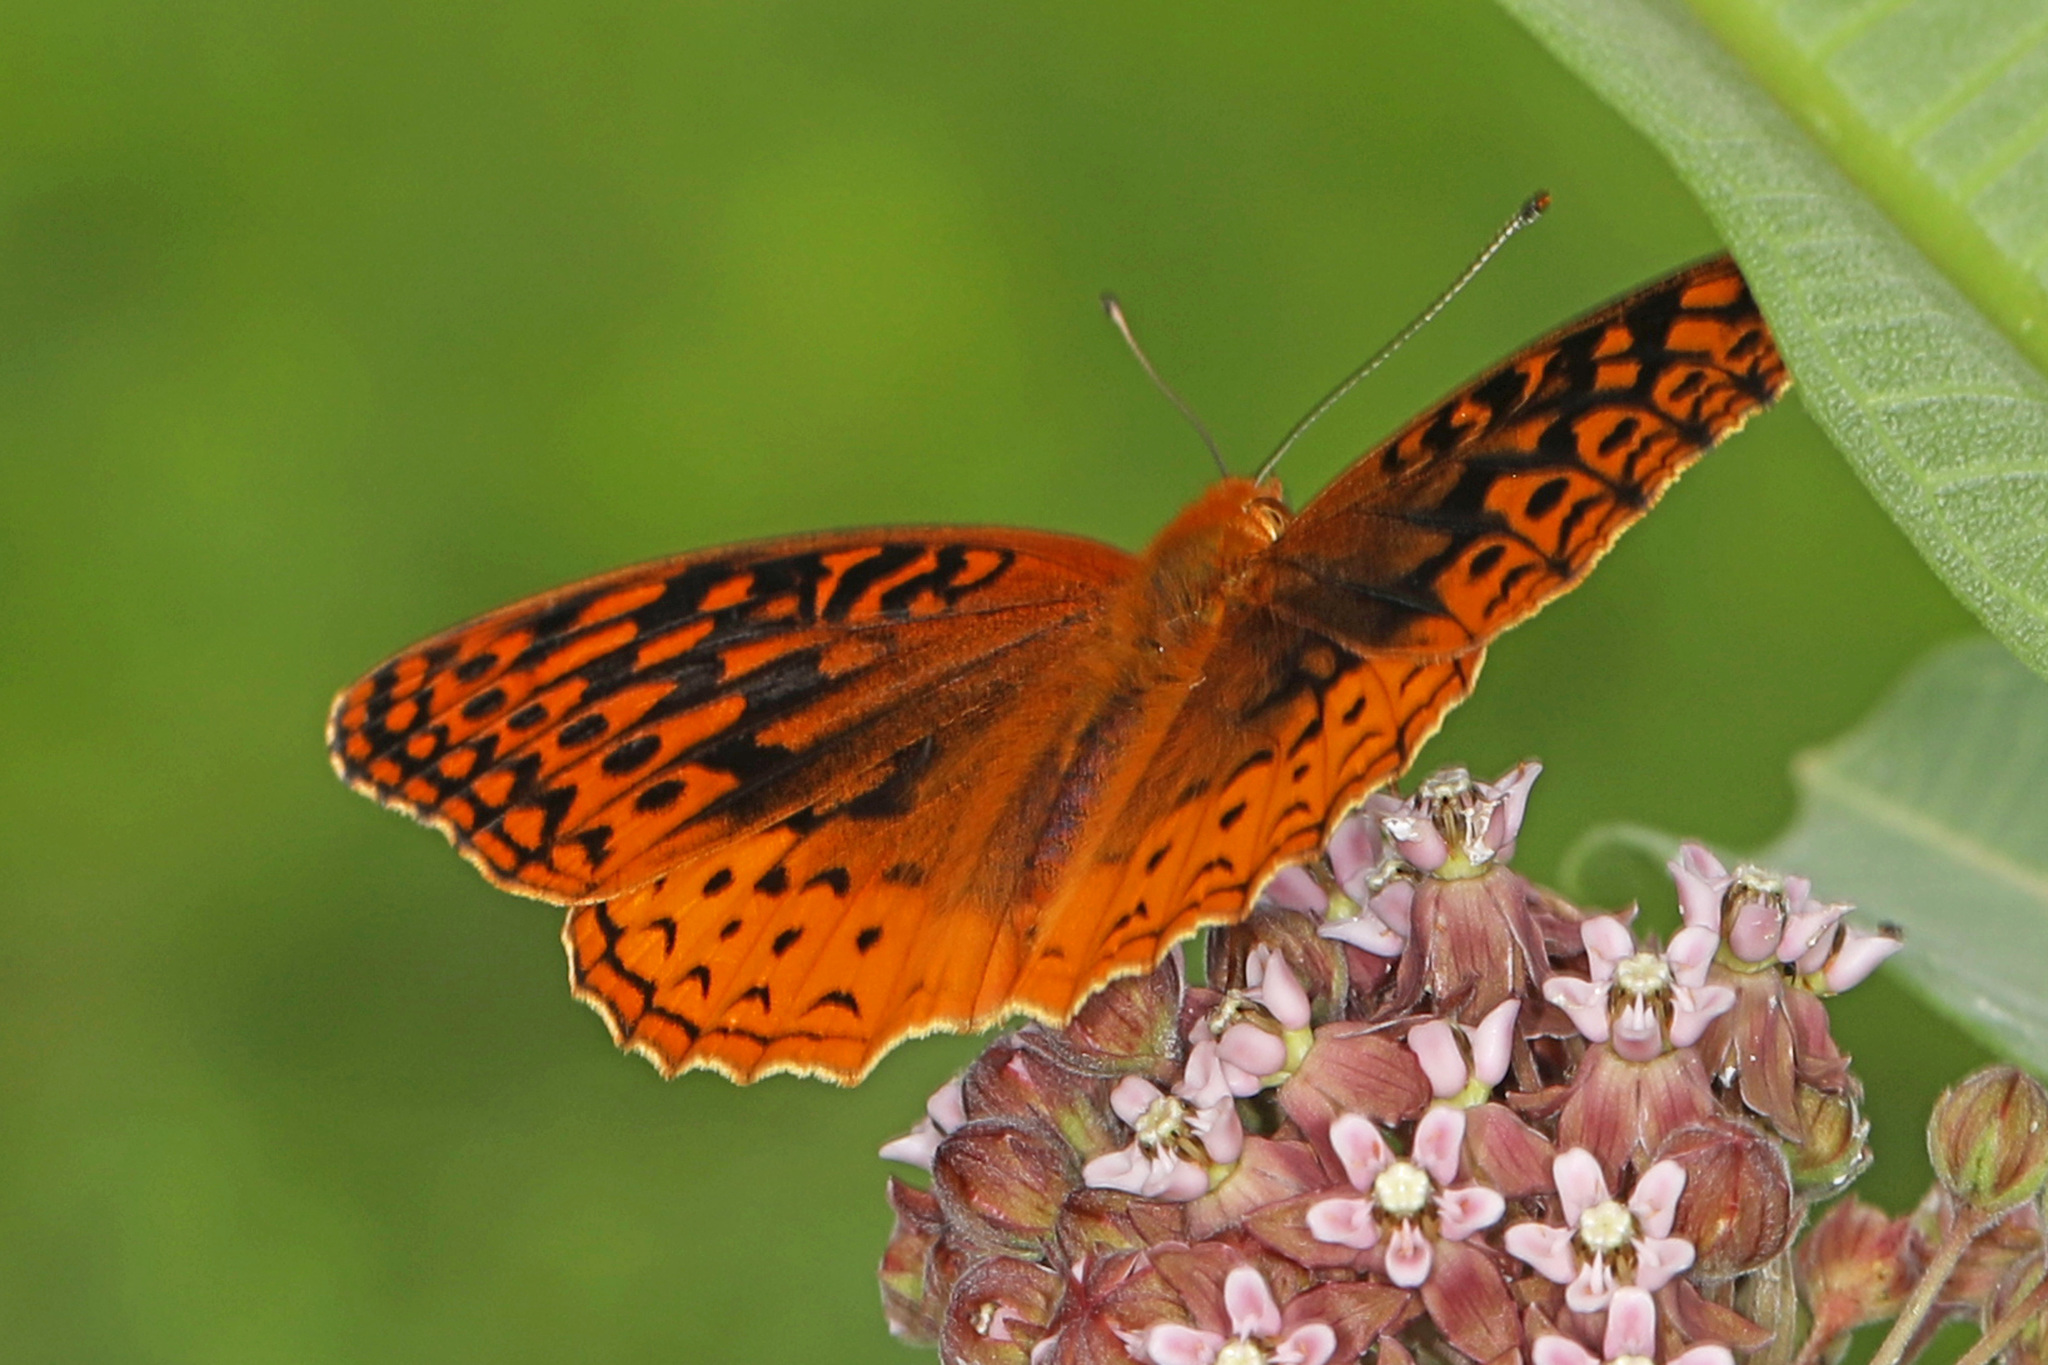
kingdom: Animalia
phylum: Arthropoda
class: Insecta
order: Lepidoptera
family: Nymphalidae
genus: Speyeria
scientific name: Speyeria cybele
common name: Great spangled fritillary
